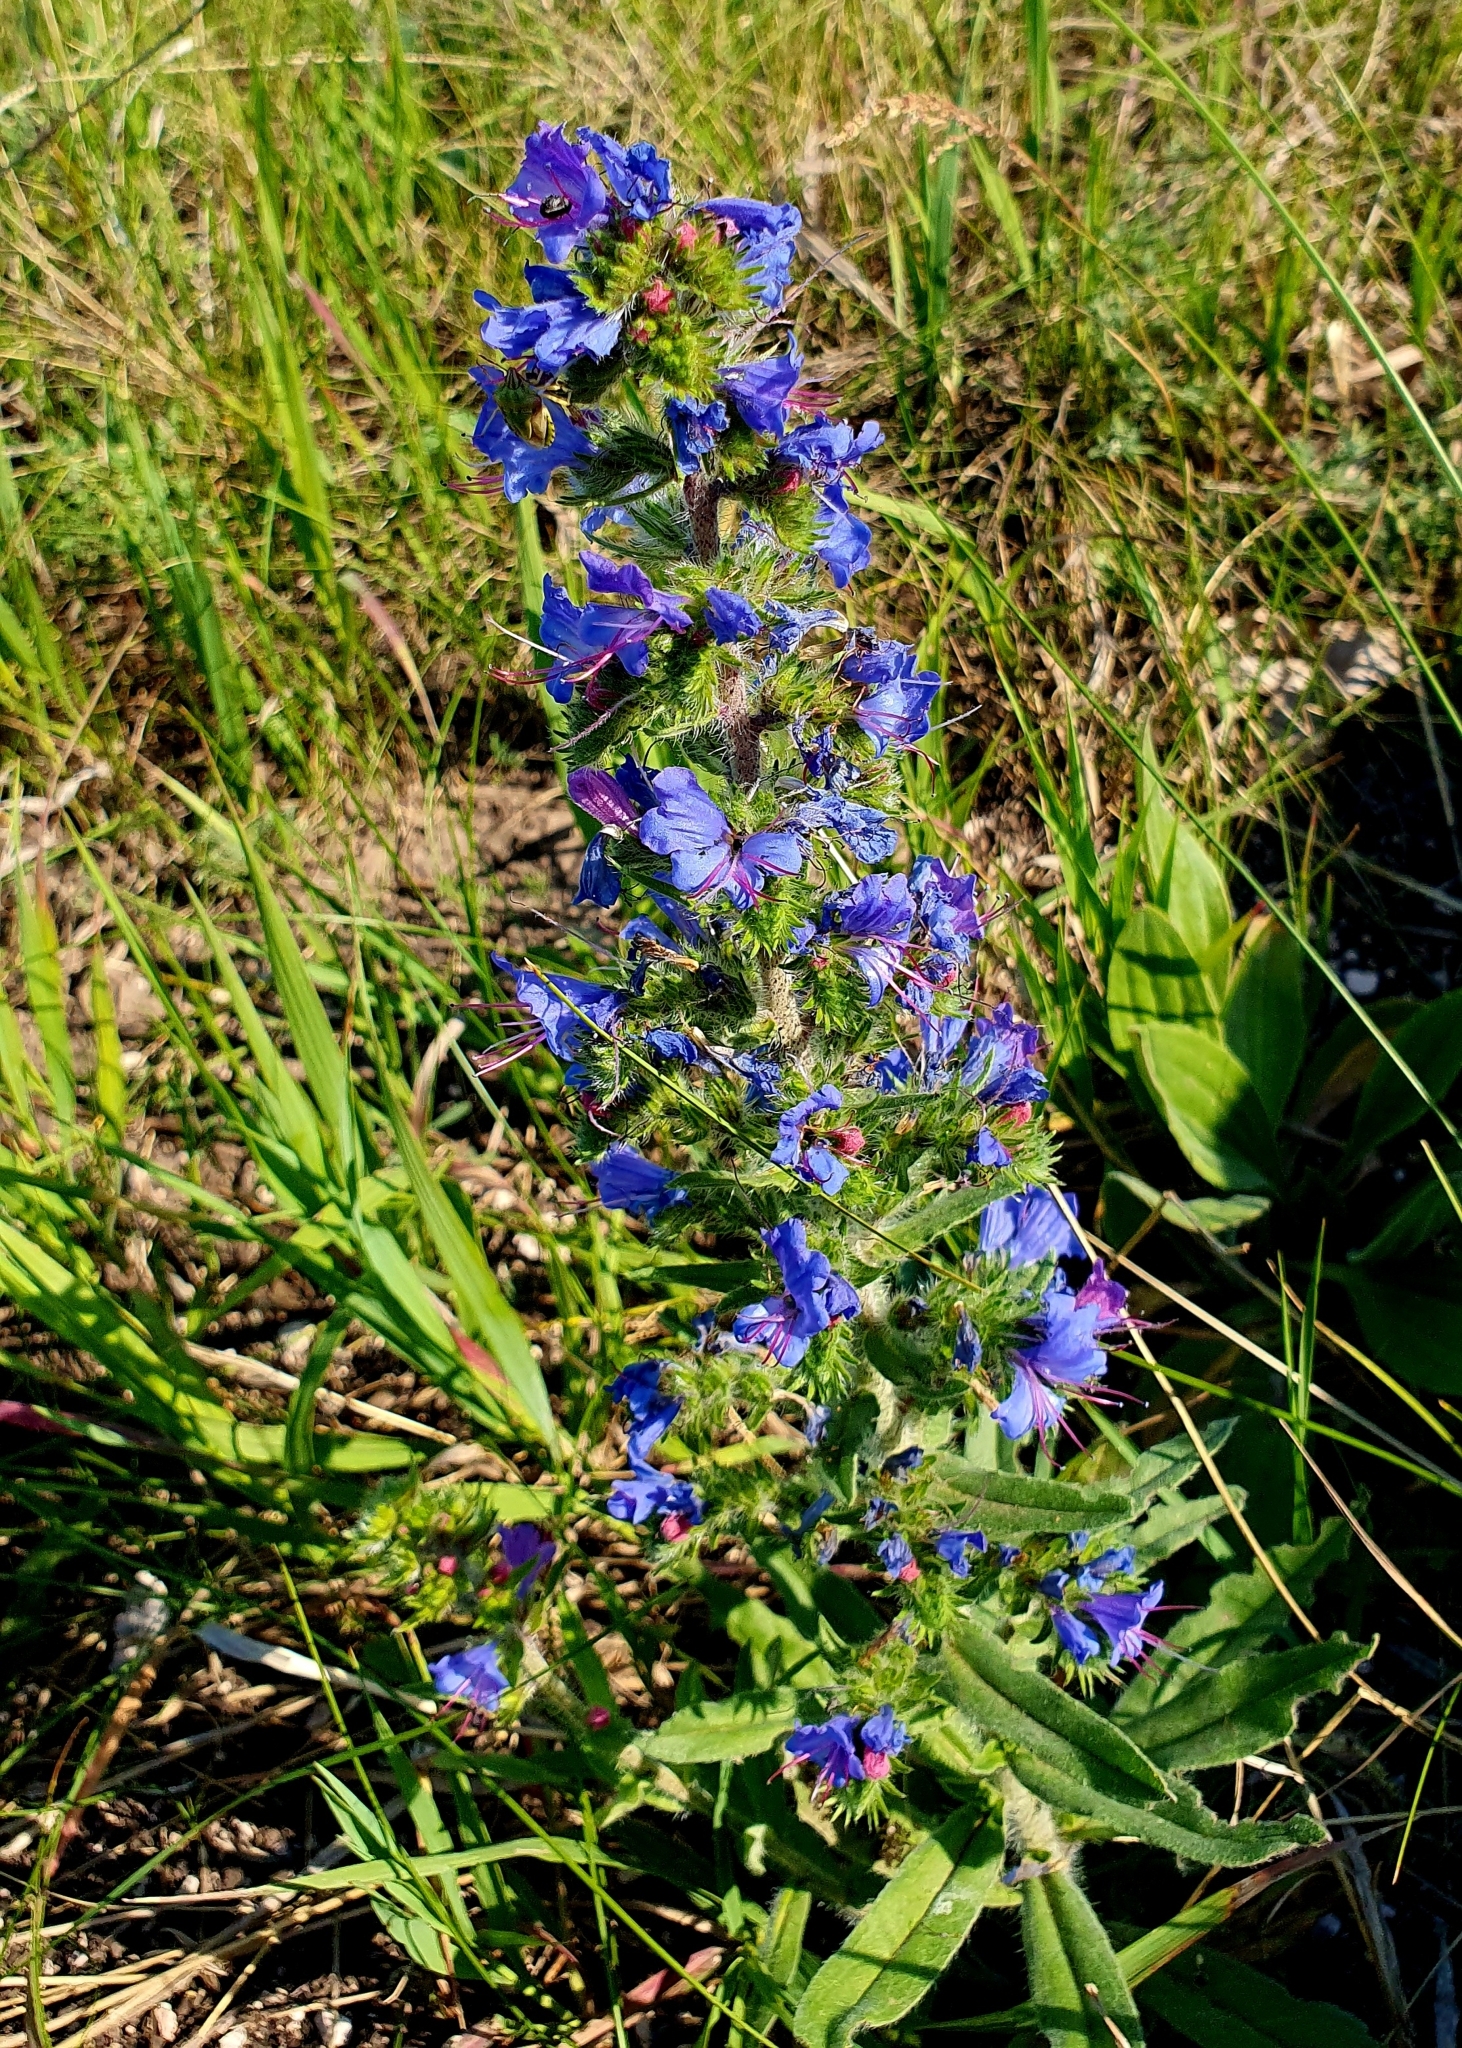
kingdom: Plantae
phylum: Tracheophyta
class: Magnoliopsida
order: Boraginales
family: Boraginaceae
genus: Echium
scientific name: Echium vulgare
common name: Common viper's bugloss
